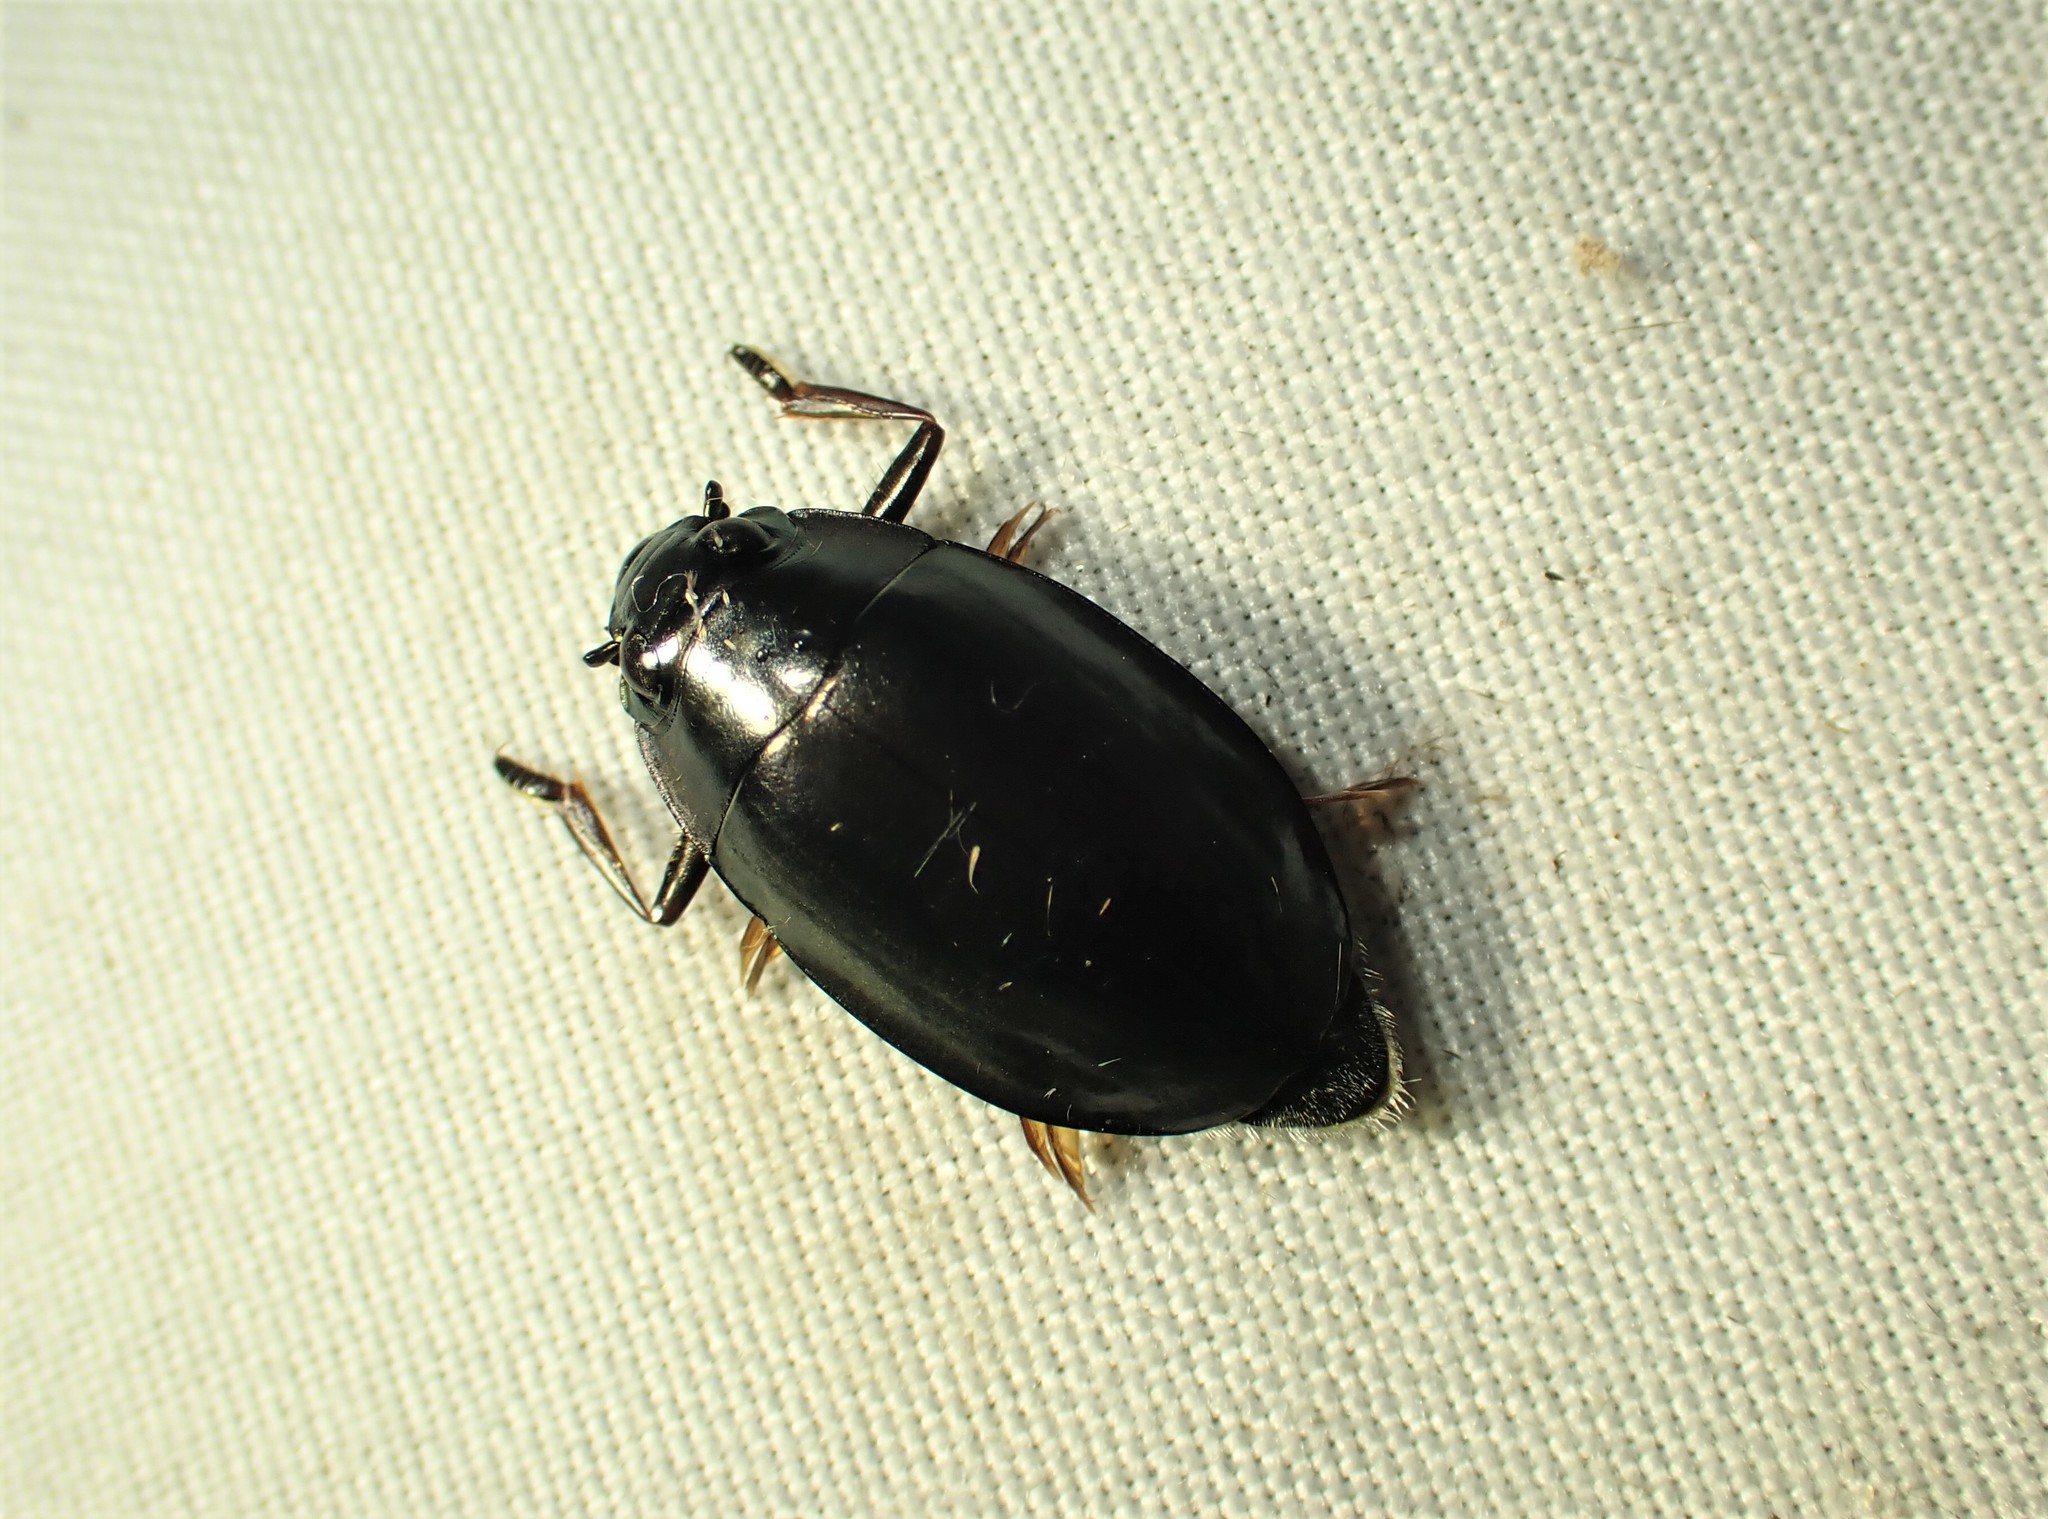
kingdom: Animalia
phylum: Arthropoda
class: Insecta
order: Coleoptera
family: Gyrinidae
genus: Dineutus
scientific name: Dineutus
